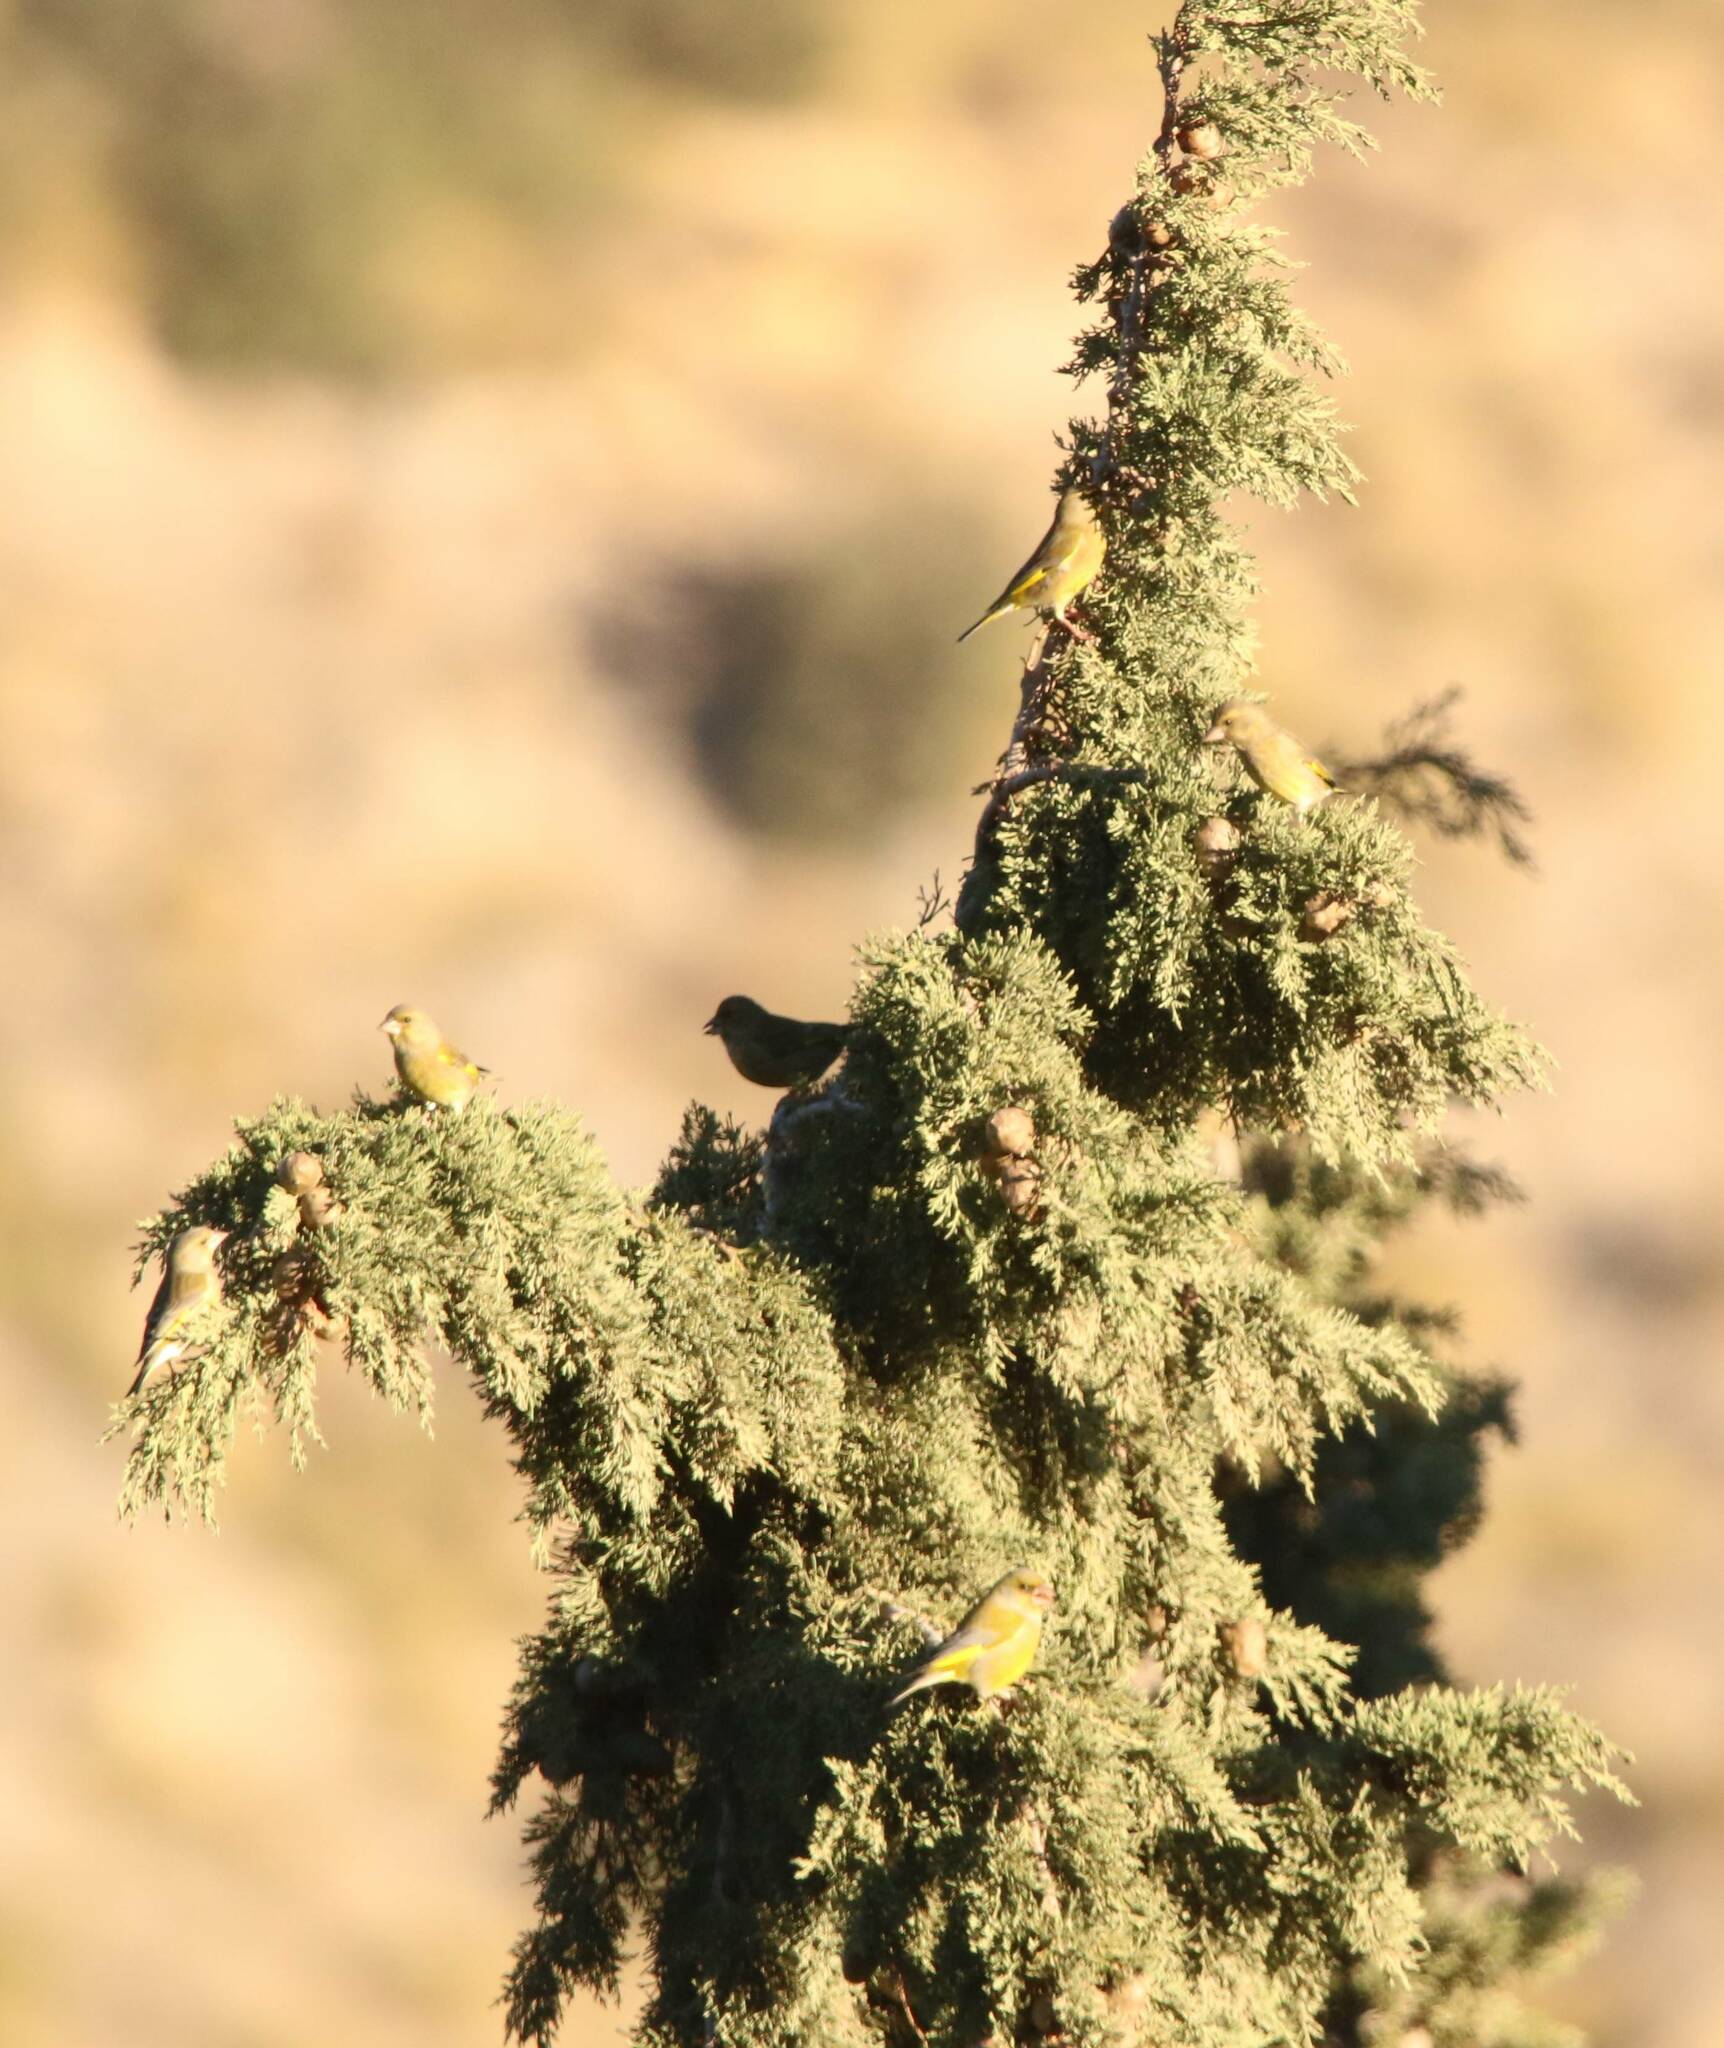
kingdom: Plantae
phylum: Tracheophyta
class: Liliopsida
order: Poales
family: Poaceae
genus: Chloris
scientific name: Chloris chloris
